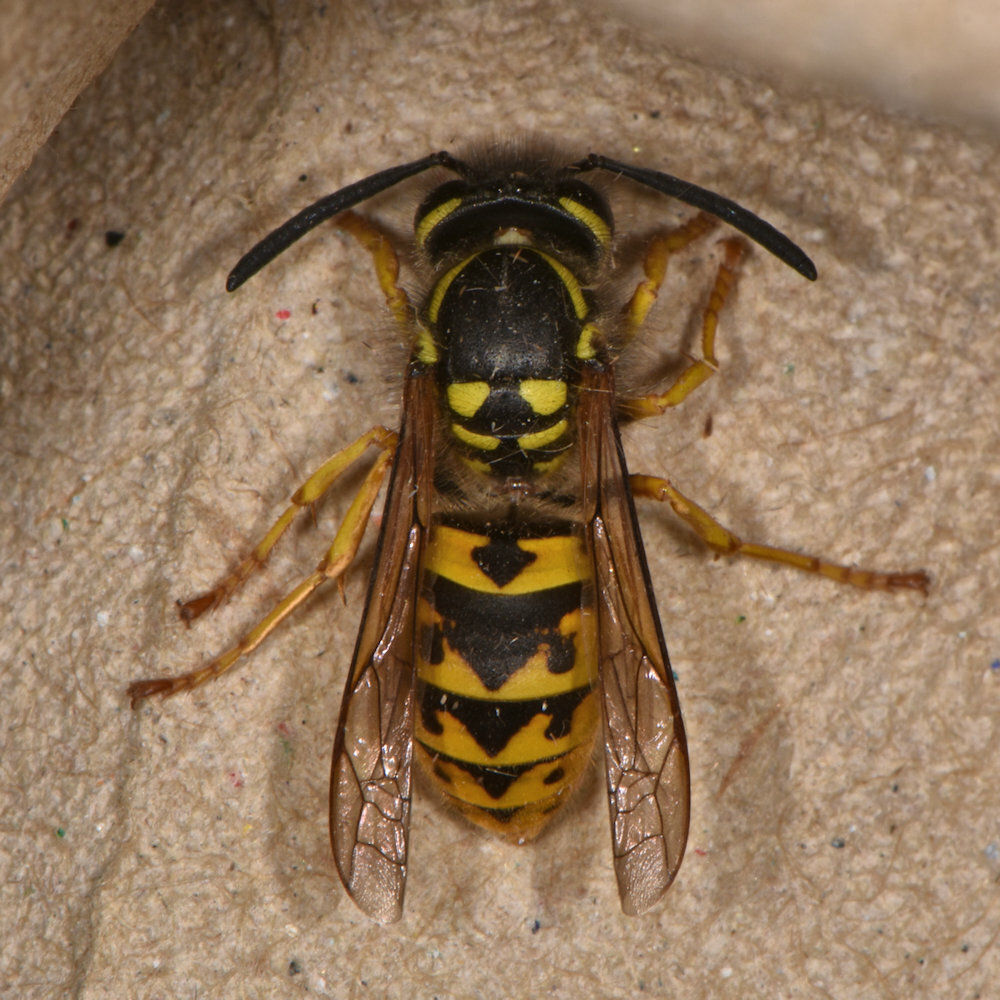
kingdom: Animalia
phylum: Arthropoda
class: Insecta
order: Hymenoptera
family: Vespidae
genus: Vespula
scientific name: Vespula germanica
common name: German wasp
